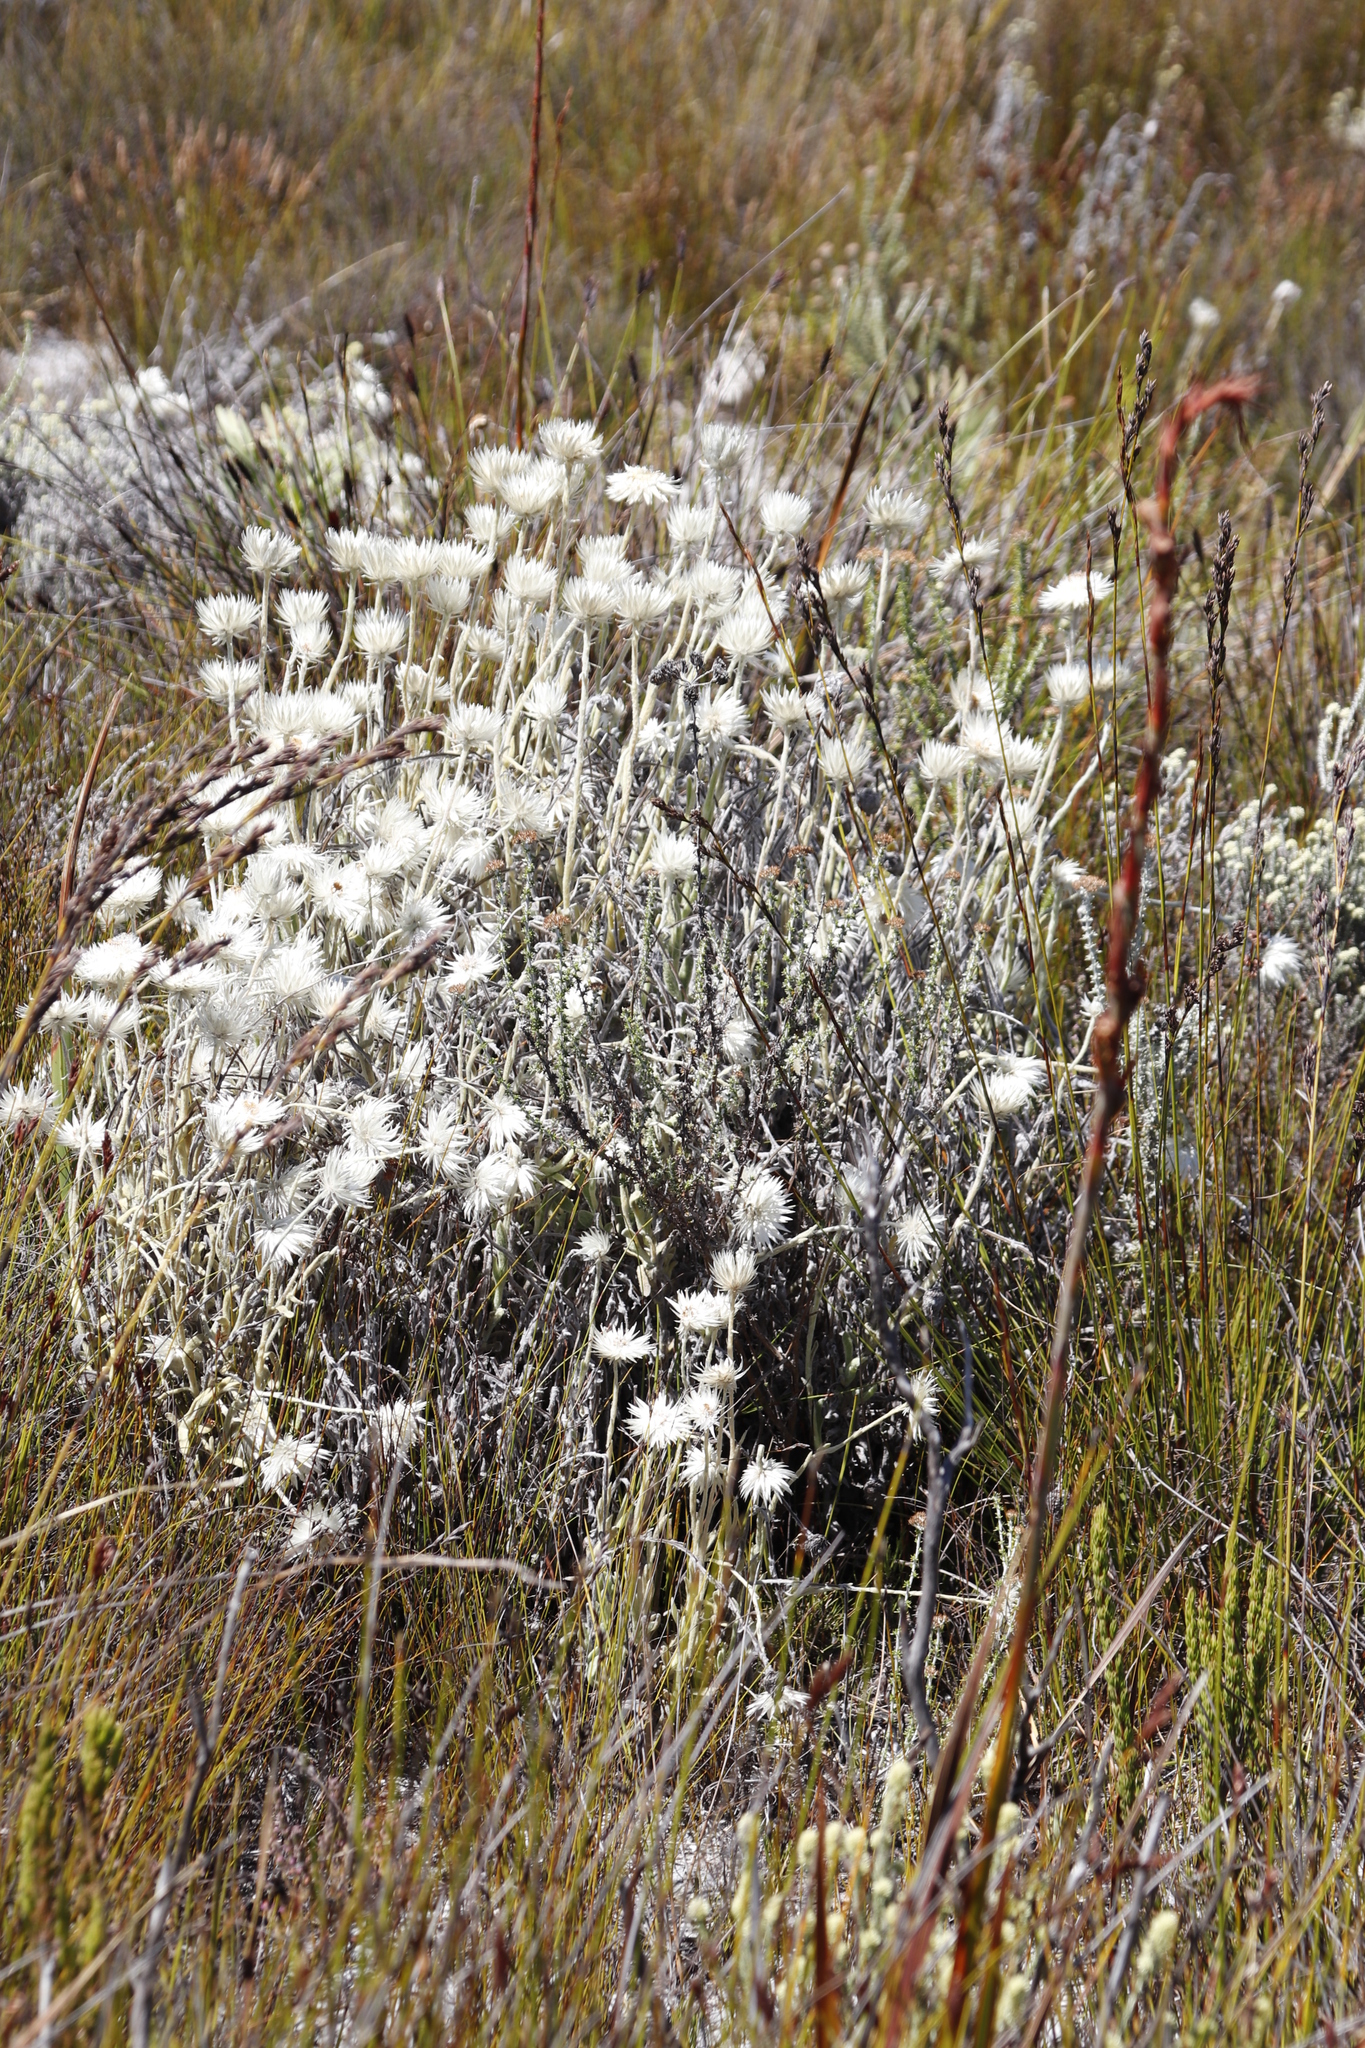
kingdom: Plantae
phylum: Tracheophyta
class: Magnoliopsida
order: Asterales
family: Asteraceae
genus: Syncarpha
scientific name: Syncarpha vestita
